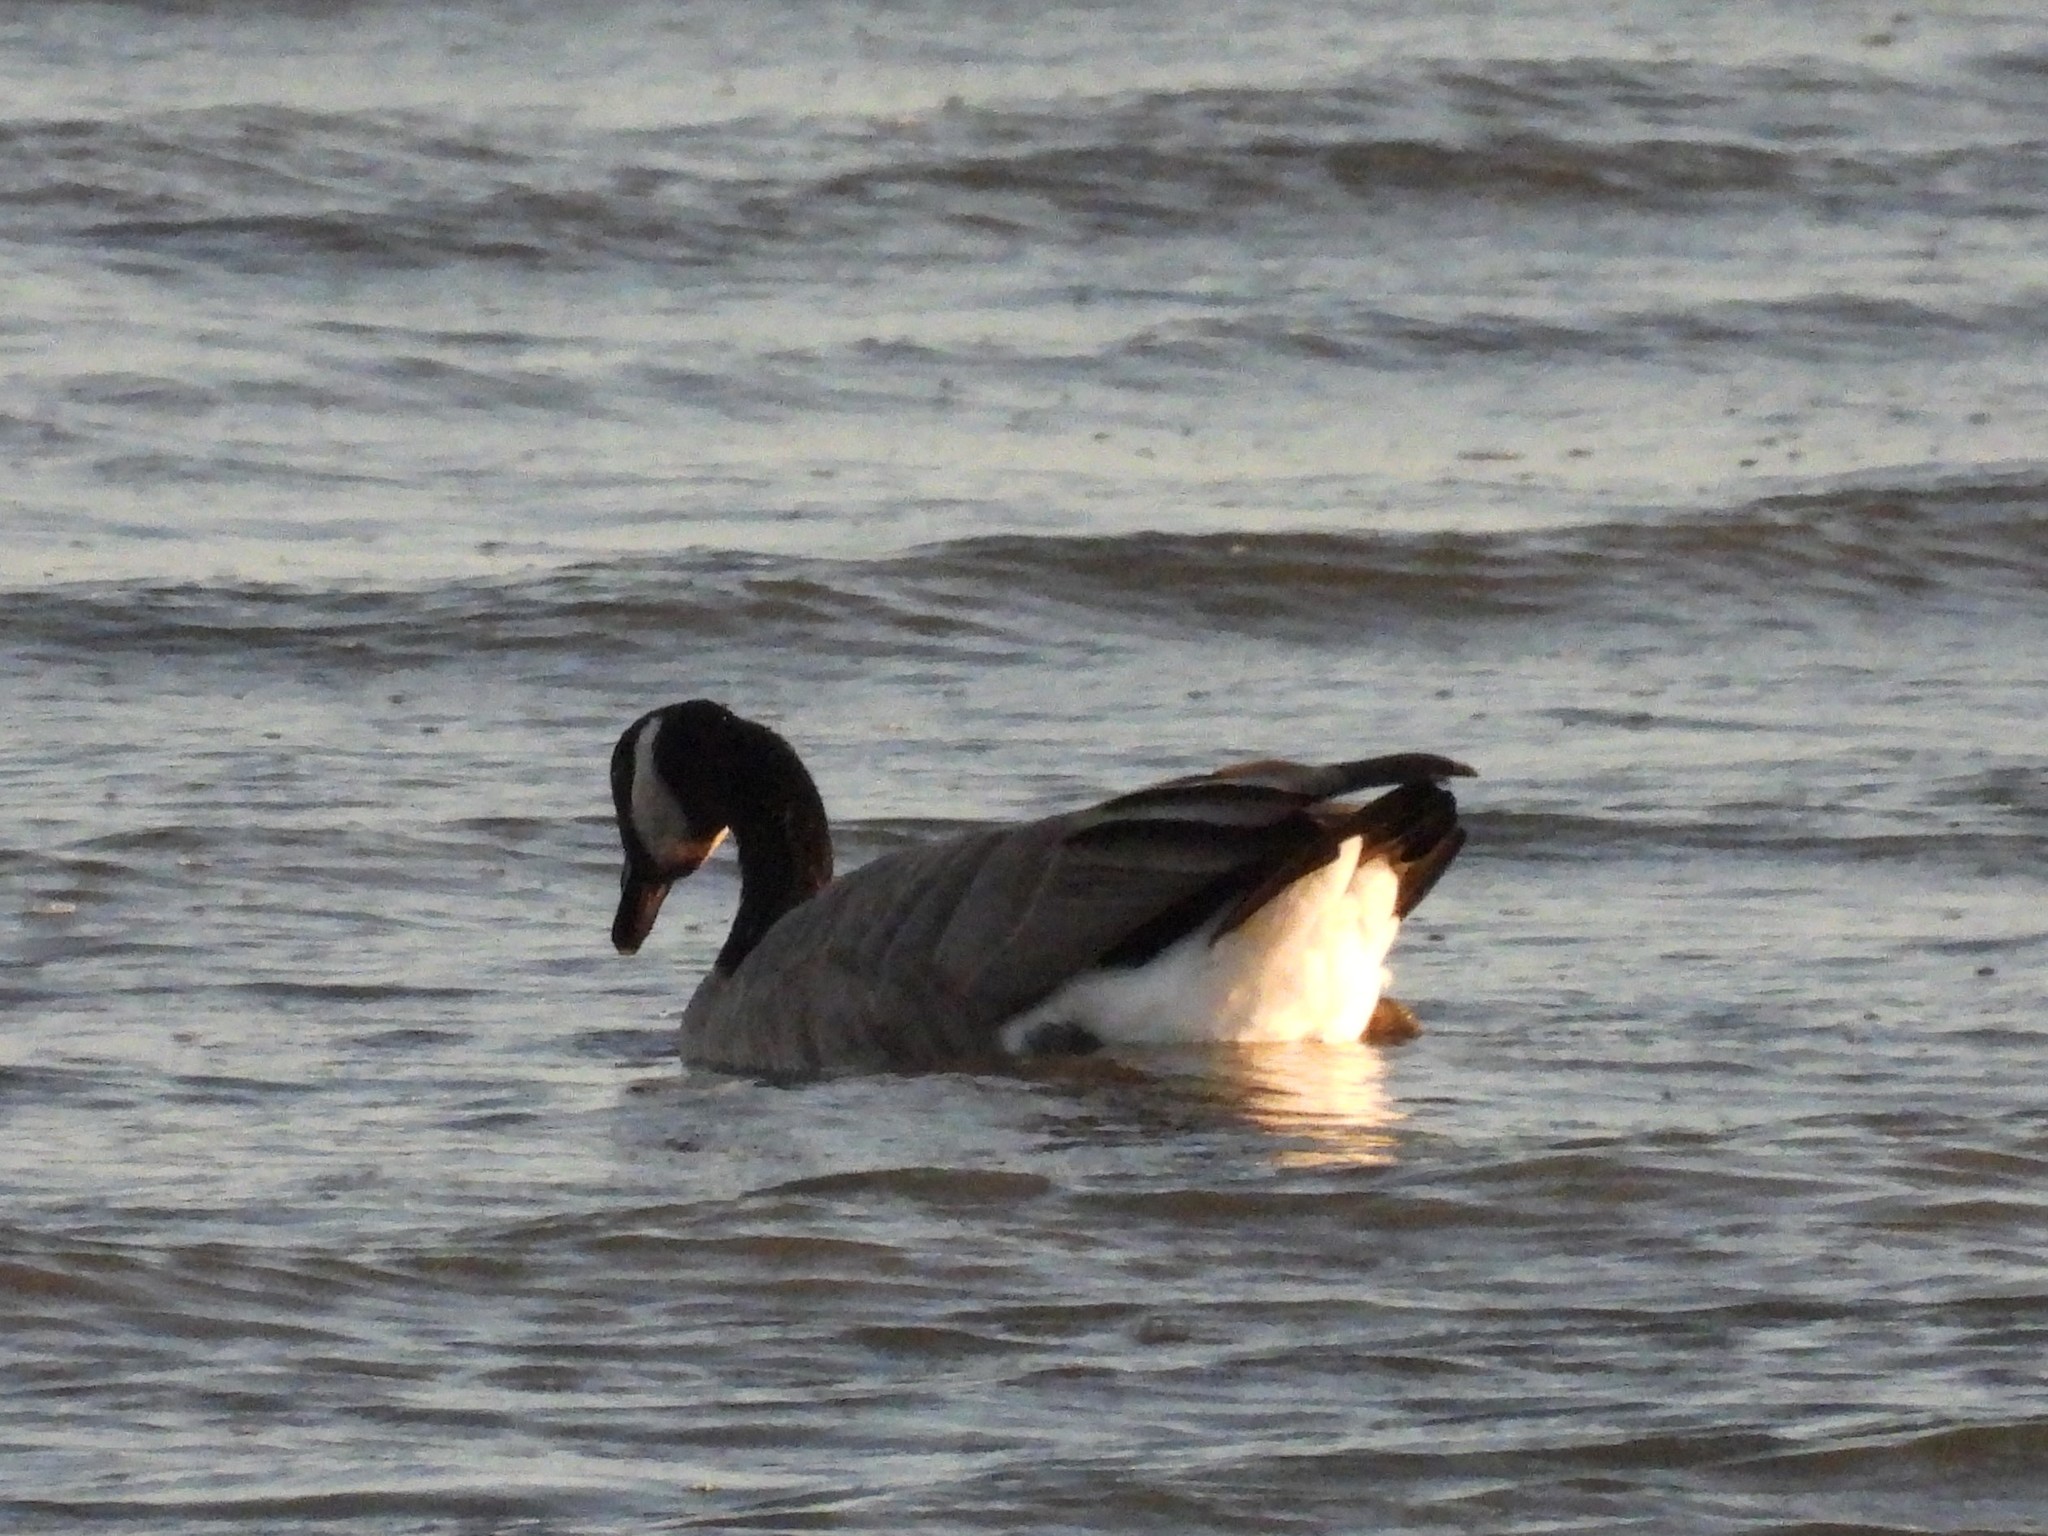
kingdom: Animalia
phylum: Chordata
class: Aves
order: Anseriformes
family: Anatidae
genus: Branta
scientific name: Branta canadensis
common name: Canada goose
